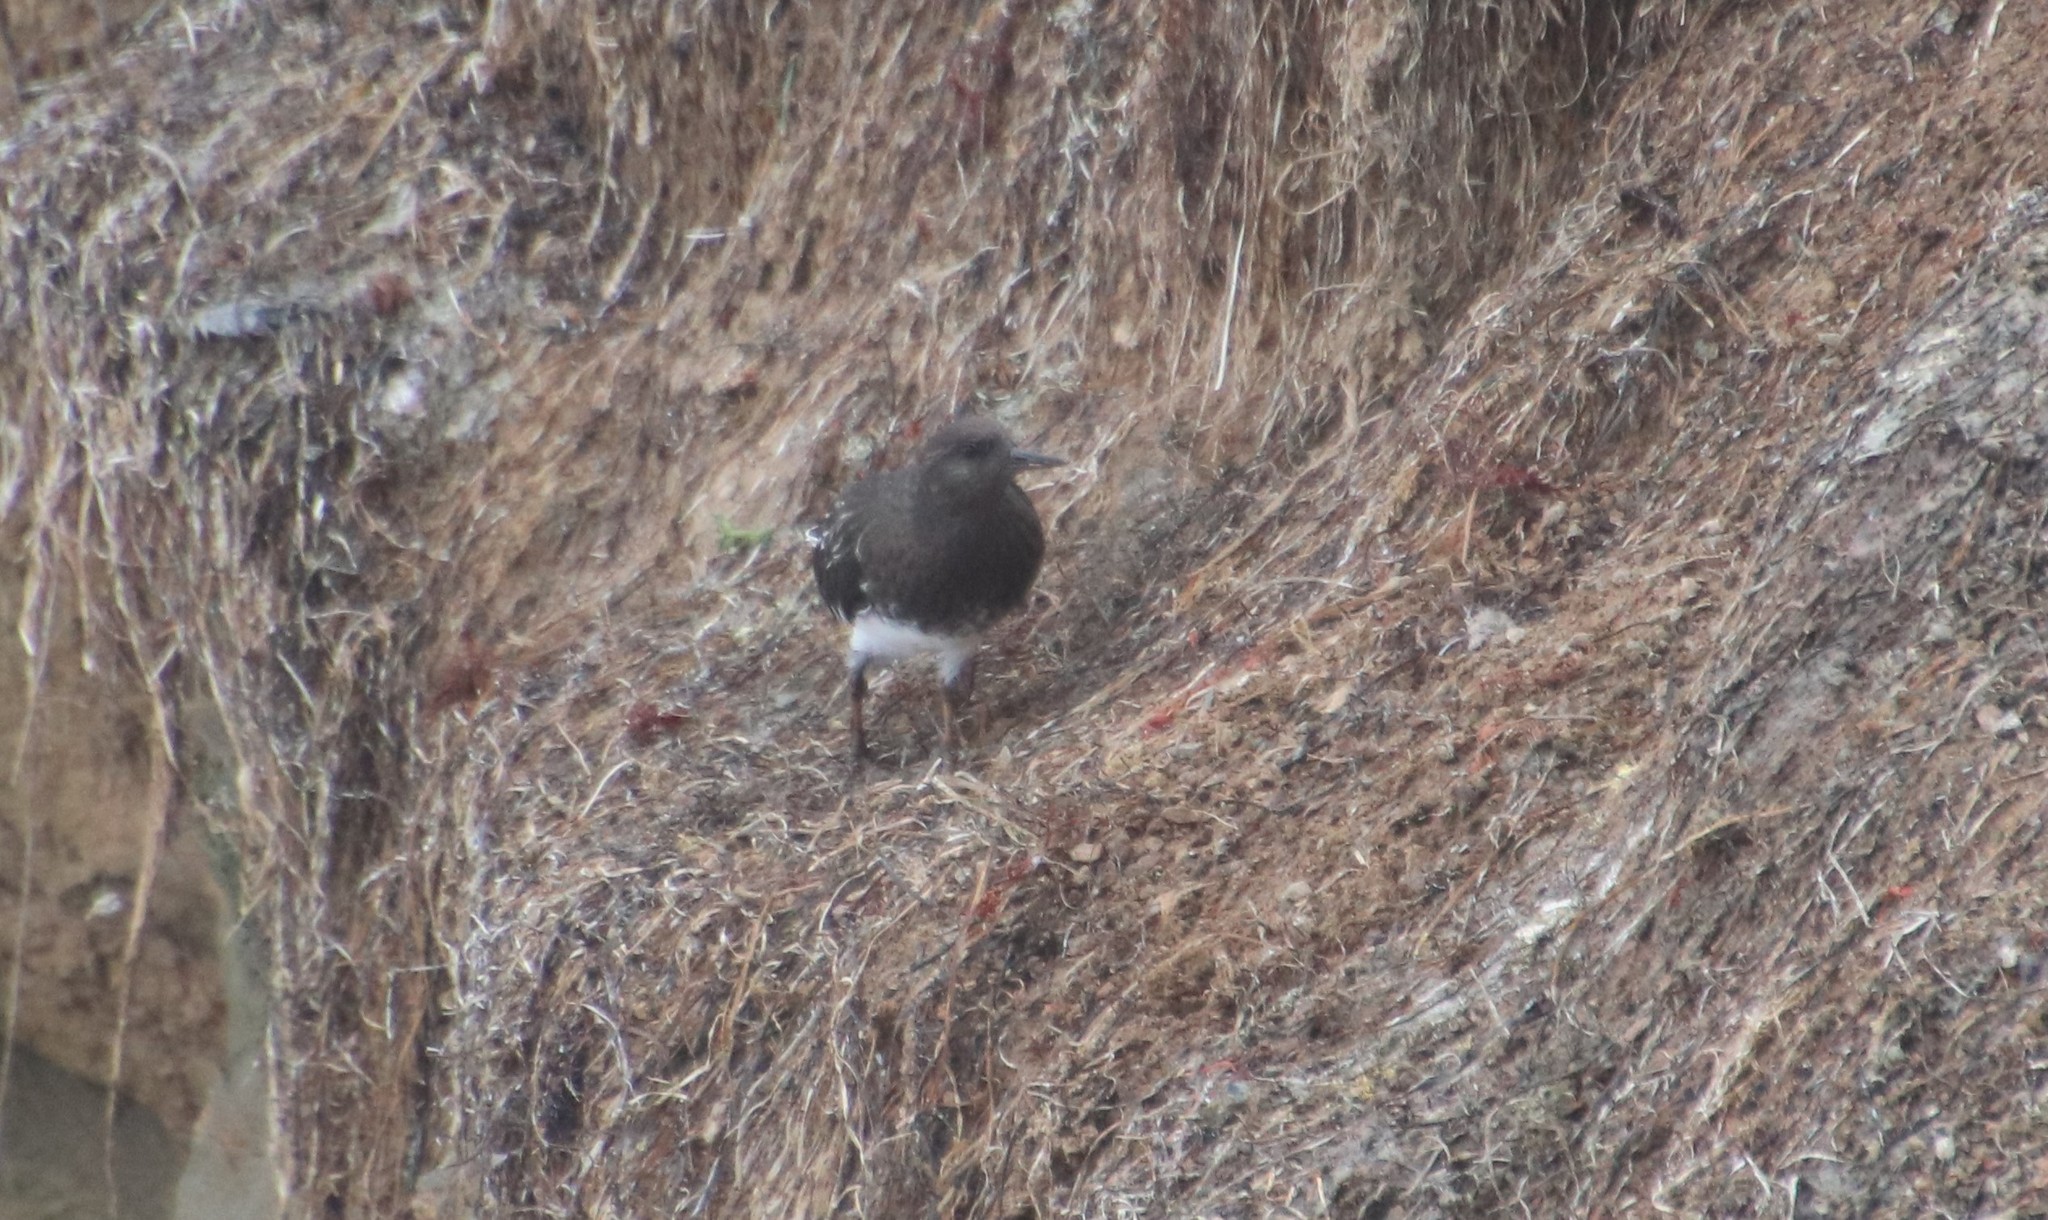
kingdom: Animalia
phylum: Chordata
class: Aves
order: Charadriiformes
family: Scolopacidae
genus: Arenaria
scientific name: Arenaria melanocephala
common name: Black turnstone
